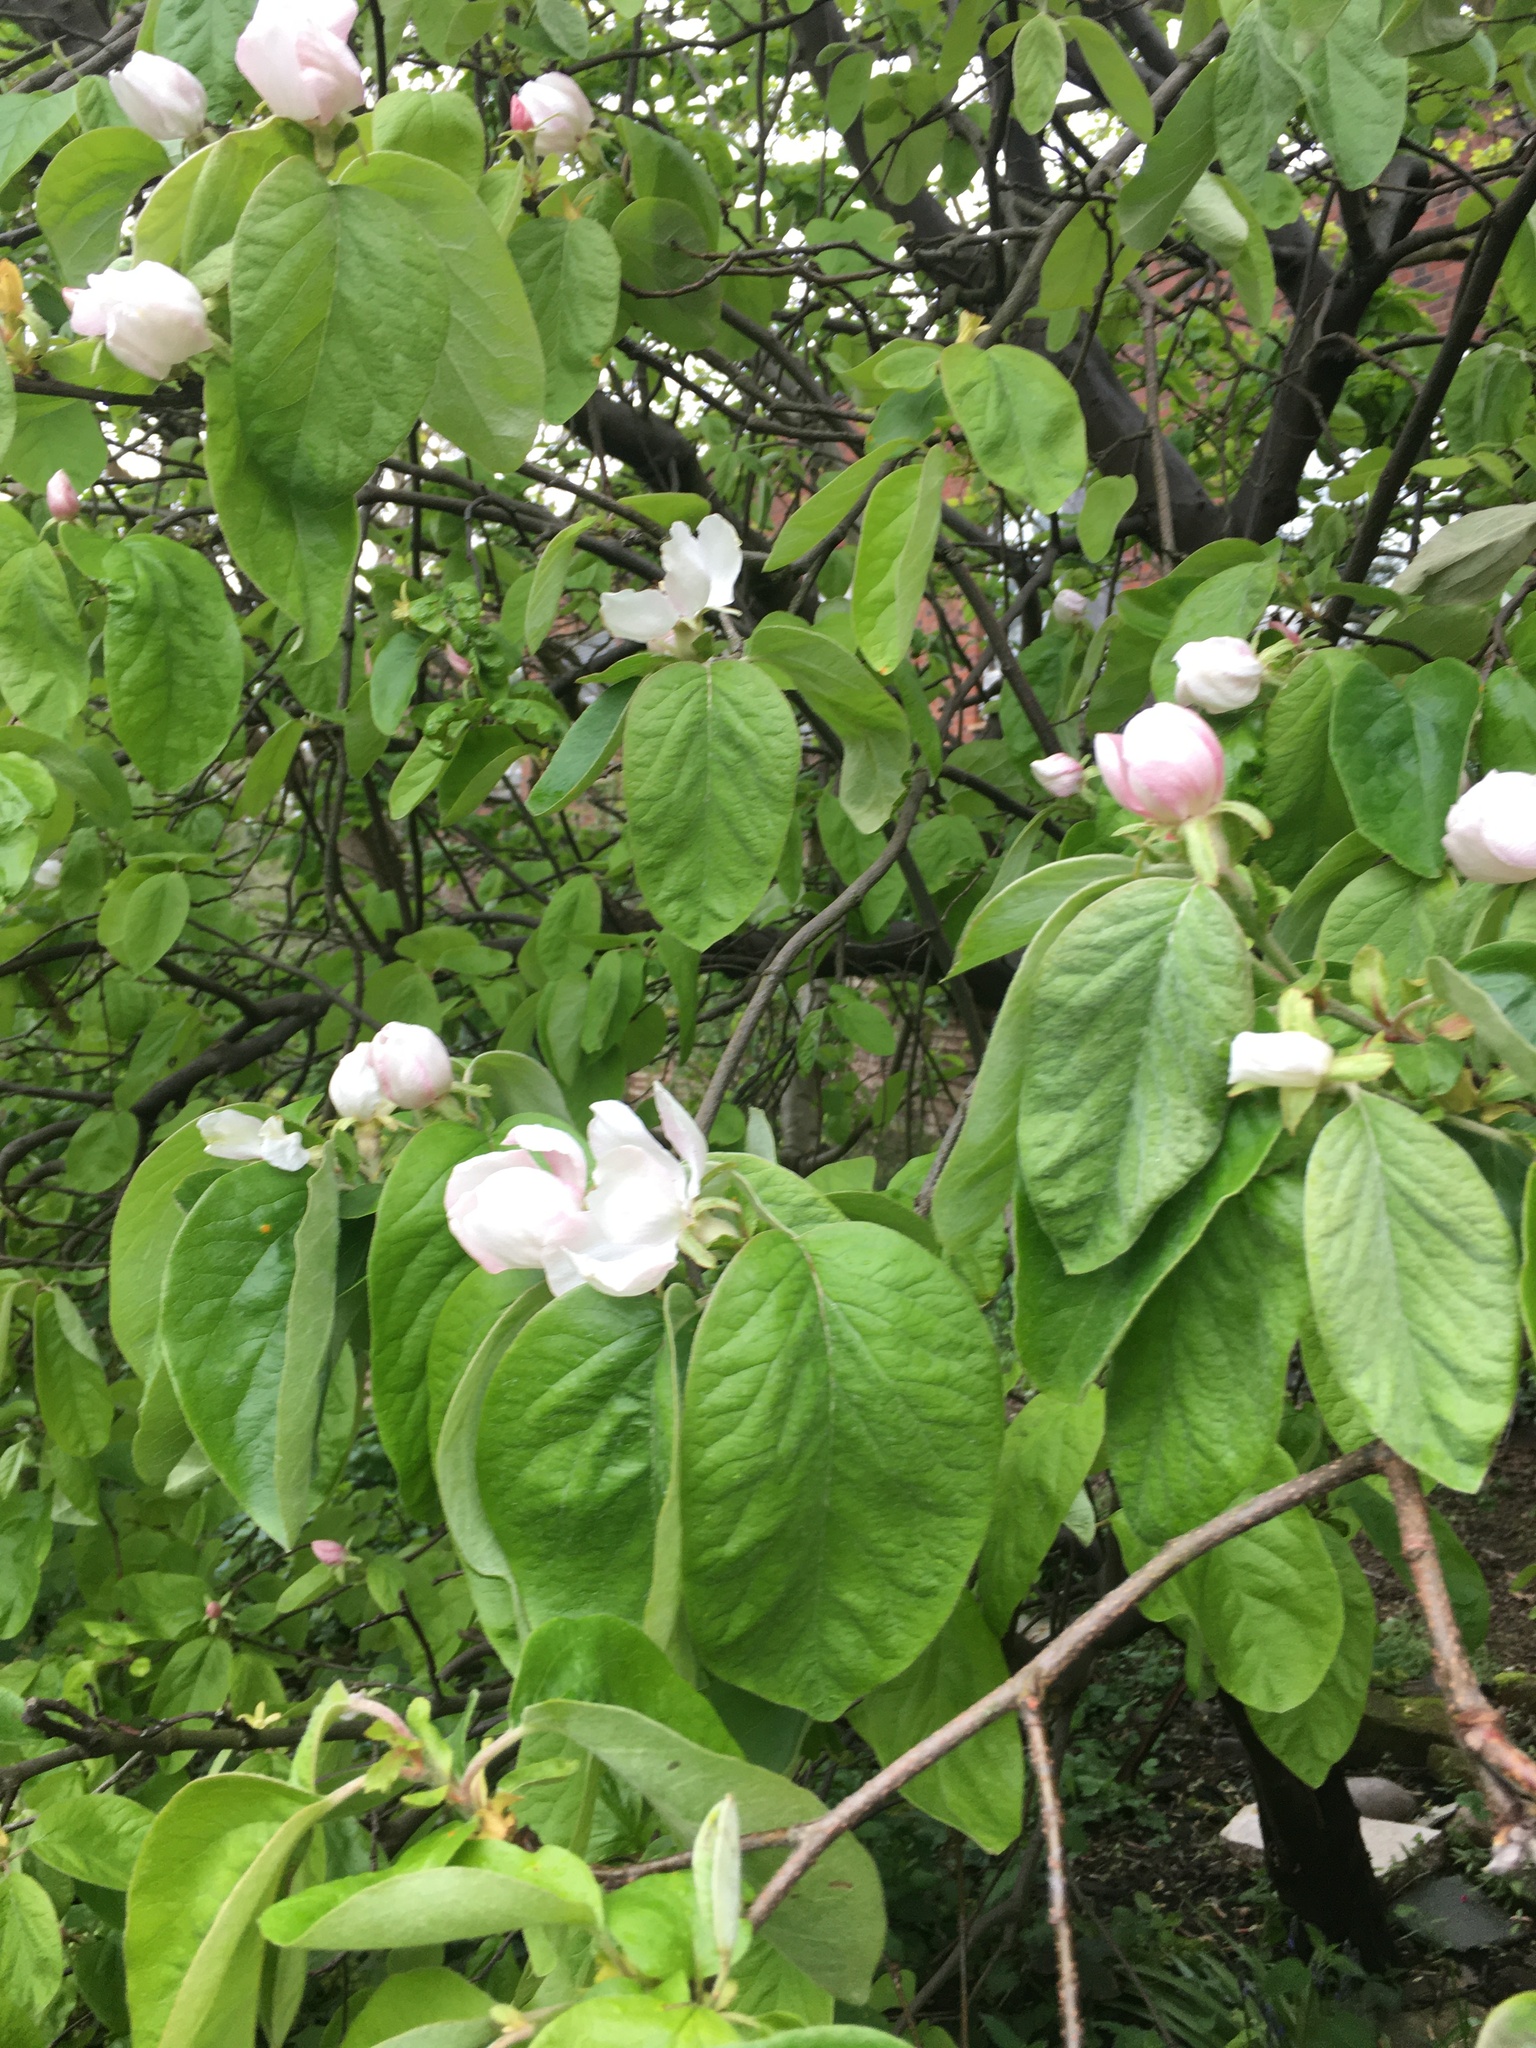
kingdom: Plantae
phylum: Tracheophyta
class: Magnoliopsida
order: Rosales
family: Rosaceae
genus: Cydonia
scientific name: Cydonia oblonga
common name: Quince
